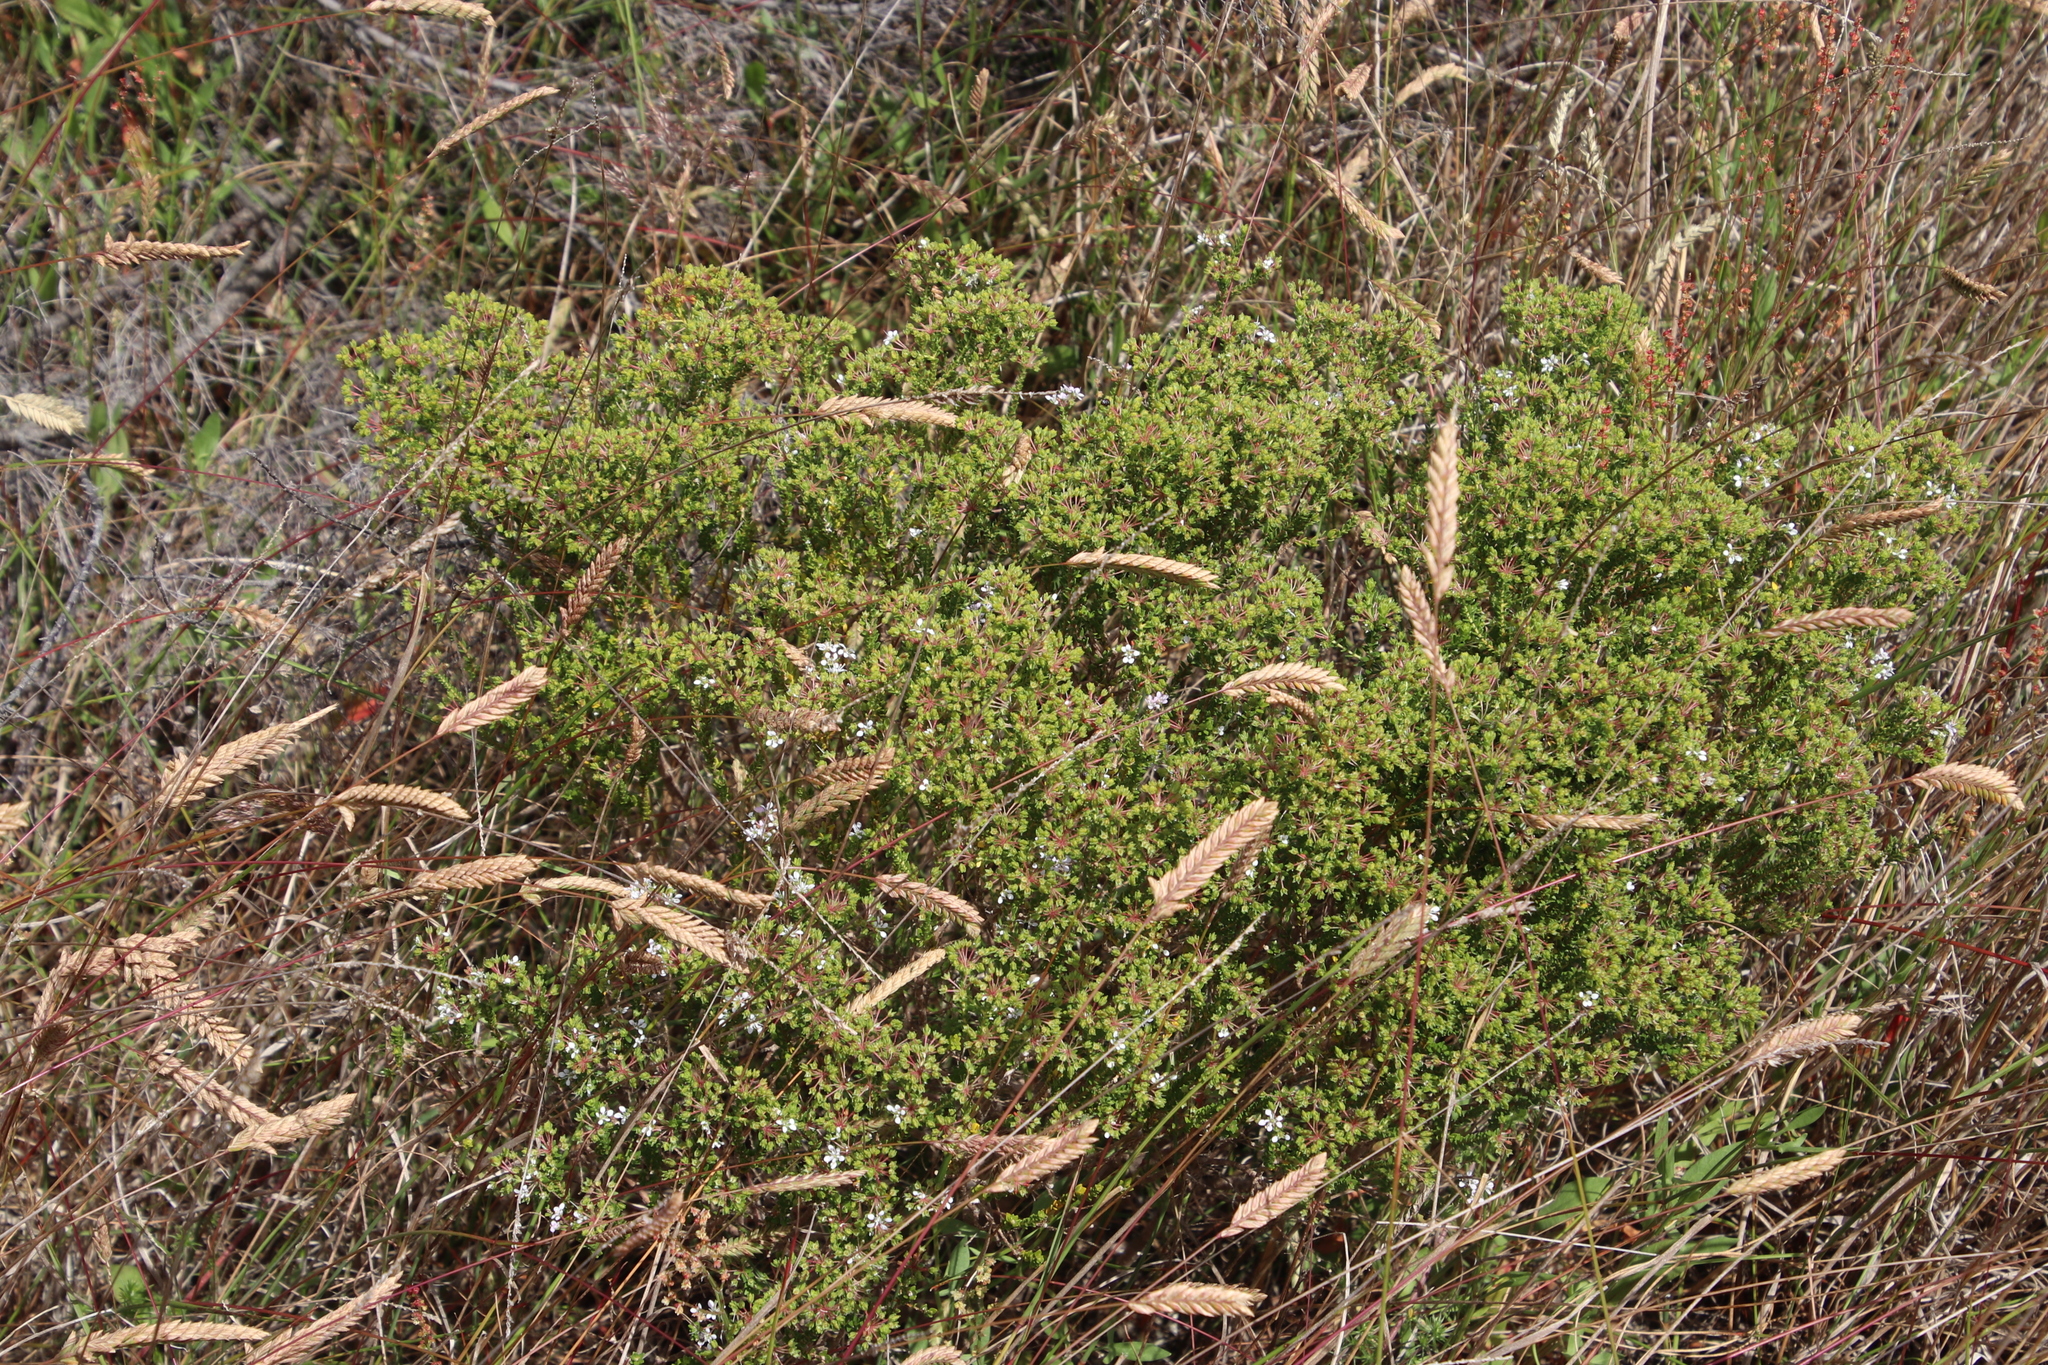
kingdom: Plantae
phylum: Tracheophyta
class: Magnoliopsida
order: Sapindales
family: Rutaceae
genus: Agathosma
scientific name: Agathosma glabrata
